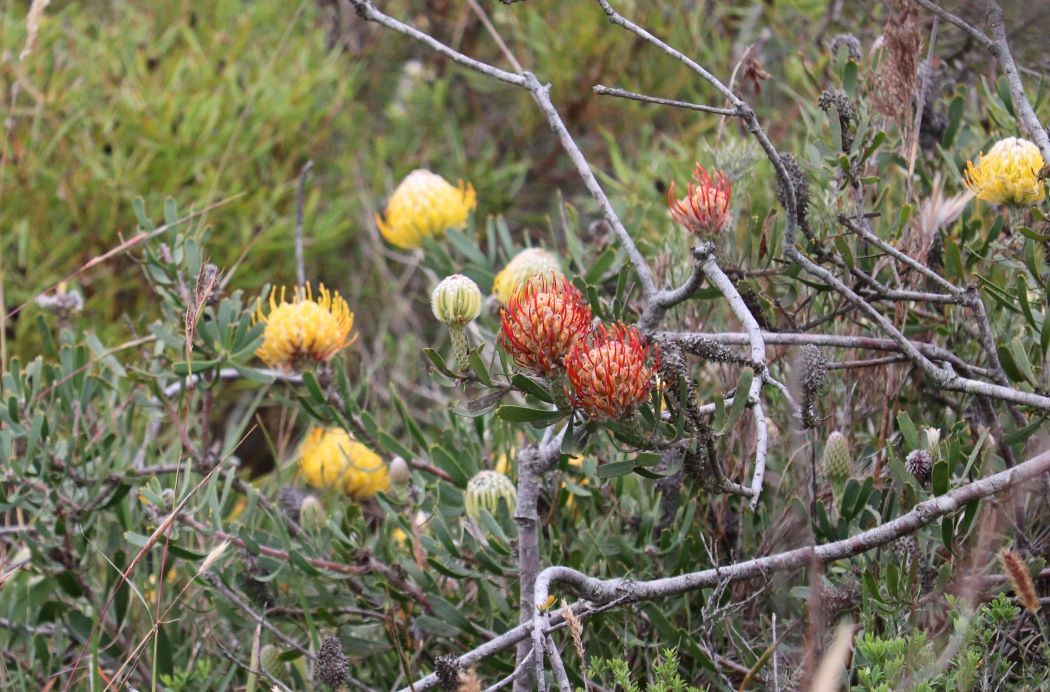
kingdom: Plantae
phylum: Tracheophyta
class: Magnoliopsida
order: Proteales
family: Proteaceae
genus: Leucospermum
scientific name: Leucospermum cuneiforme
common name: Common pincushion
